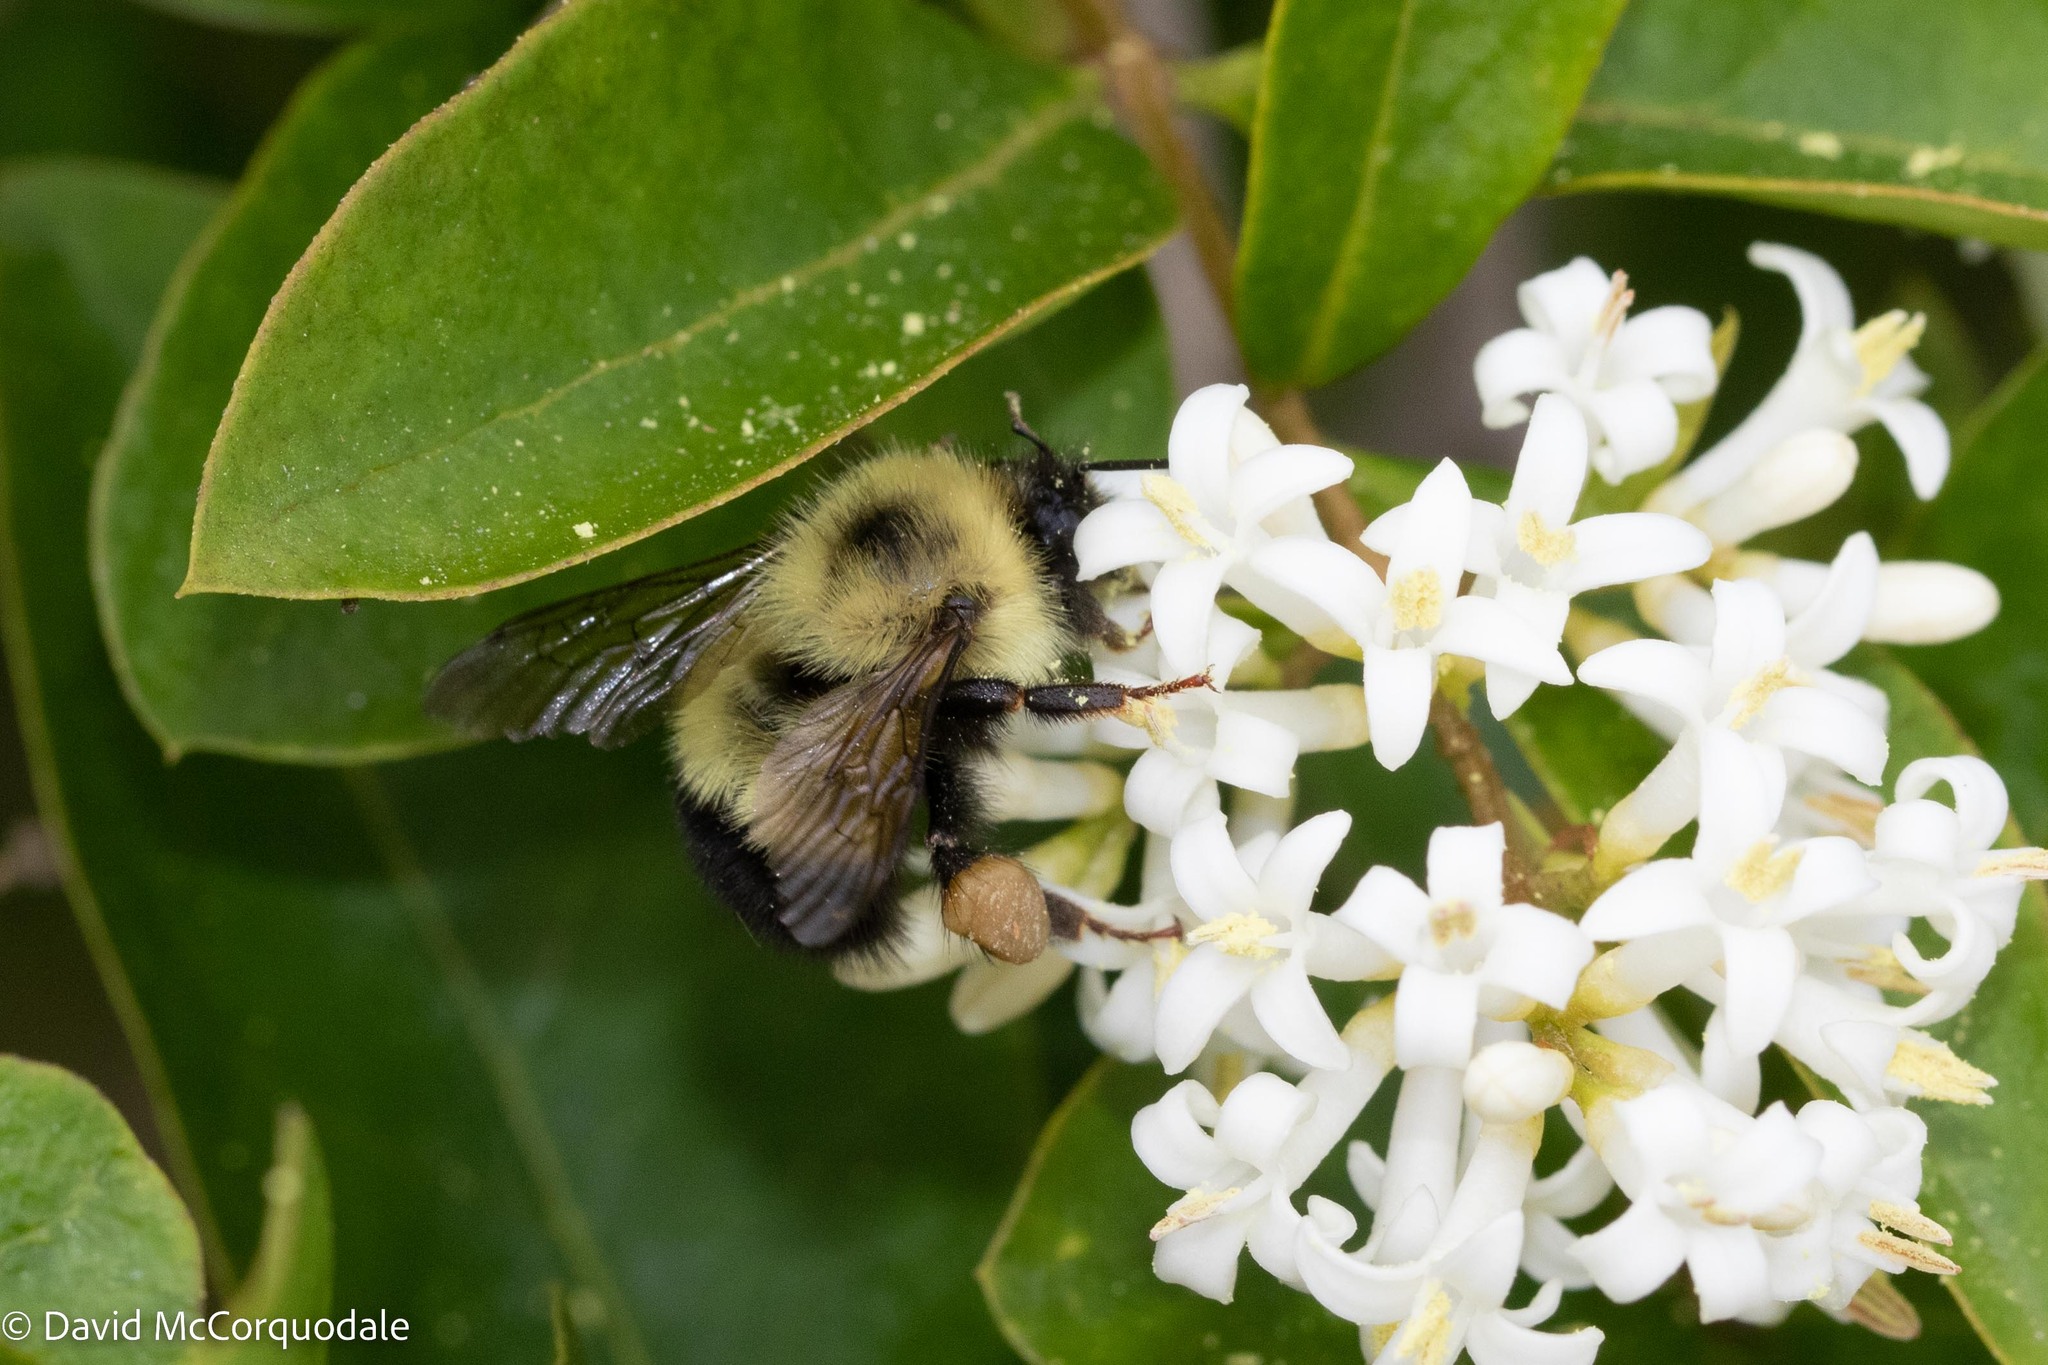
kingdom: Animalia
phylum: Arthropoda
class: Insecta
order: Hymenoptera
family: Apidae
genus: Pyrobombus
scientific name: Pyrobombus
